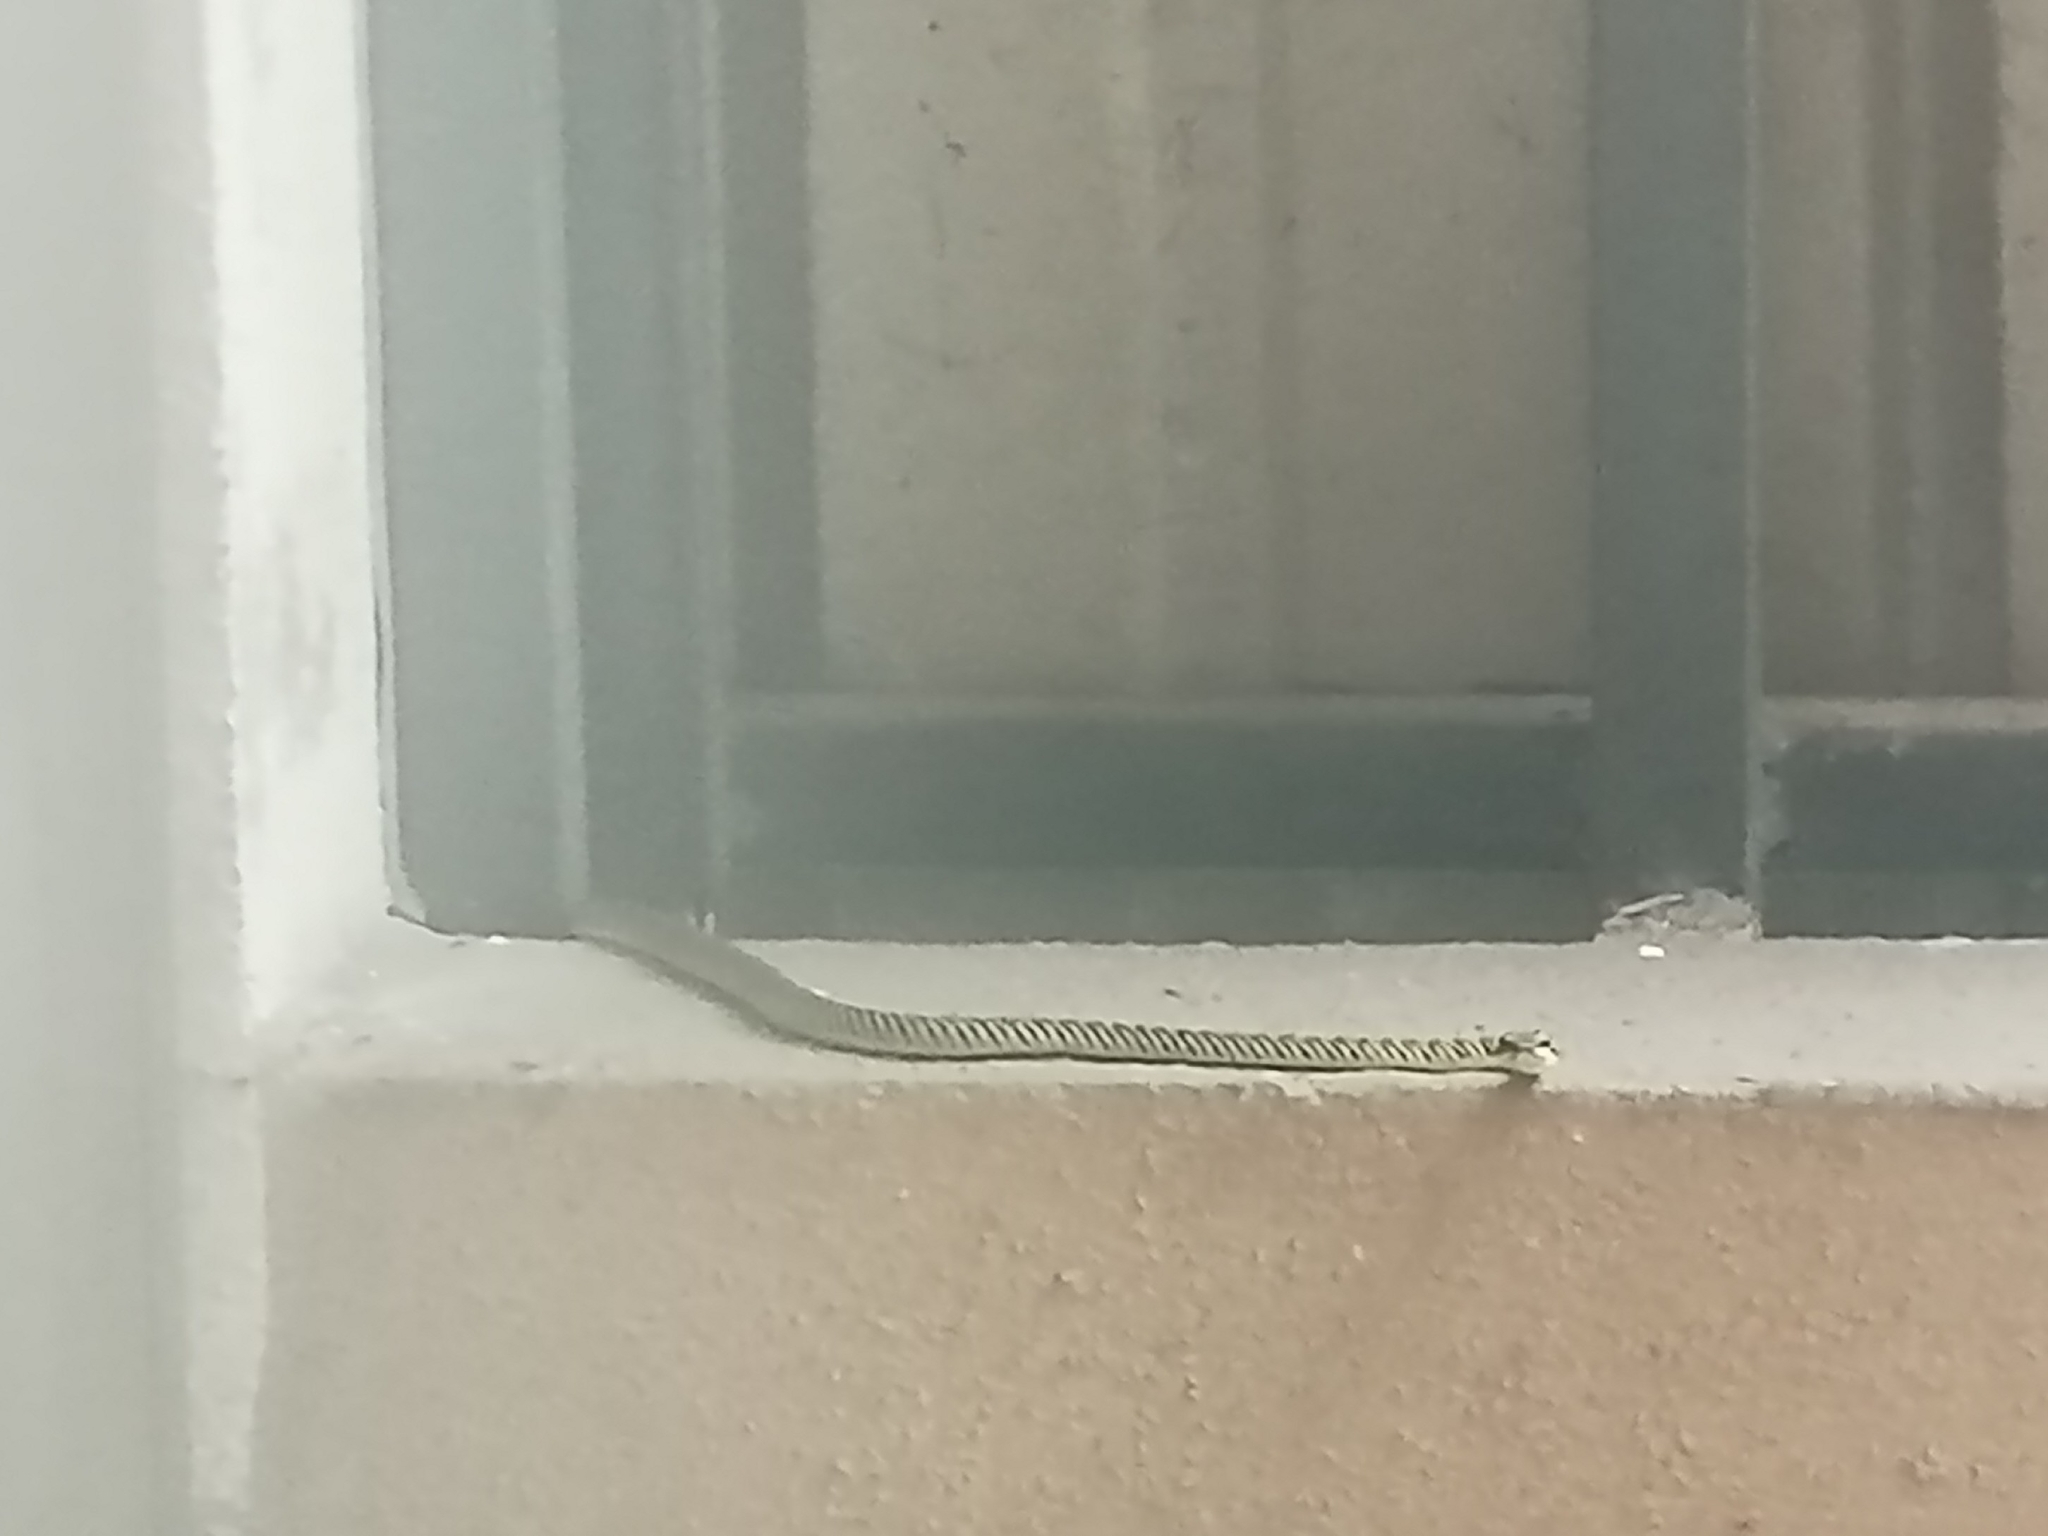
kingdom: Animalia
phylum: Chordata
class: Squamata
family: Colubridae
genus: Chrysopelea
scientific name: Chrysopelea ornata
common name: Golden flying snake
